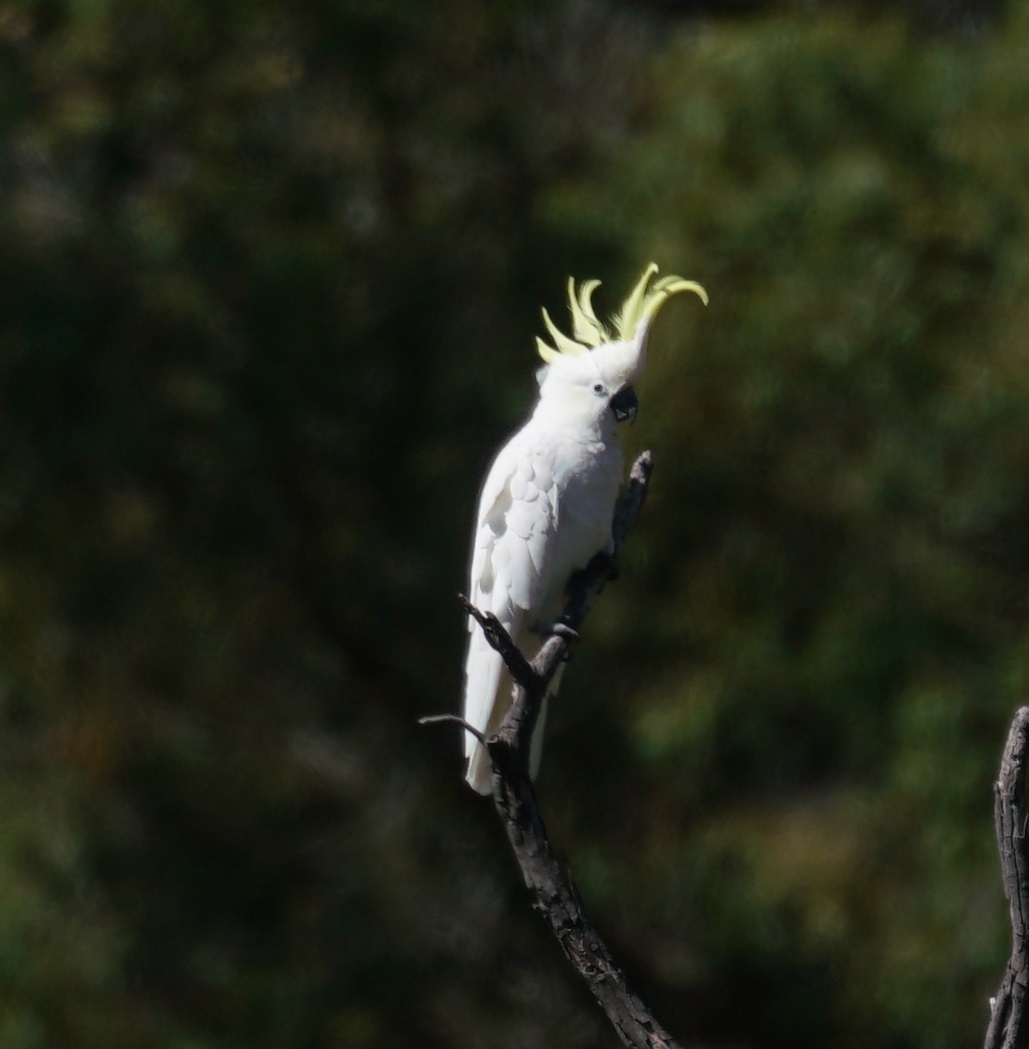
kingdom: Animalia
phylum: Chordata
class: Aves
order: Psittaciformes
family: Psittacidae
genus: Cacatua
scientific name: Cacatua galerita
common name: Sulphur-crested cockatoo
